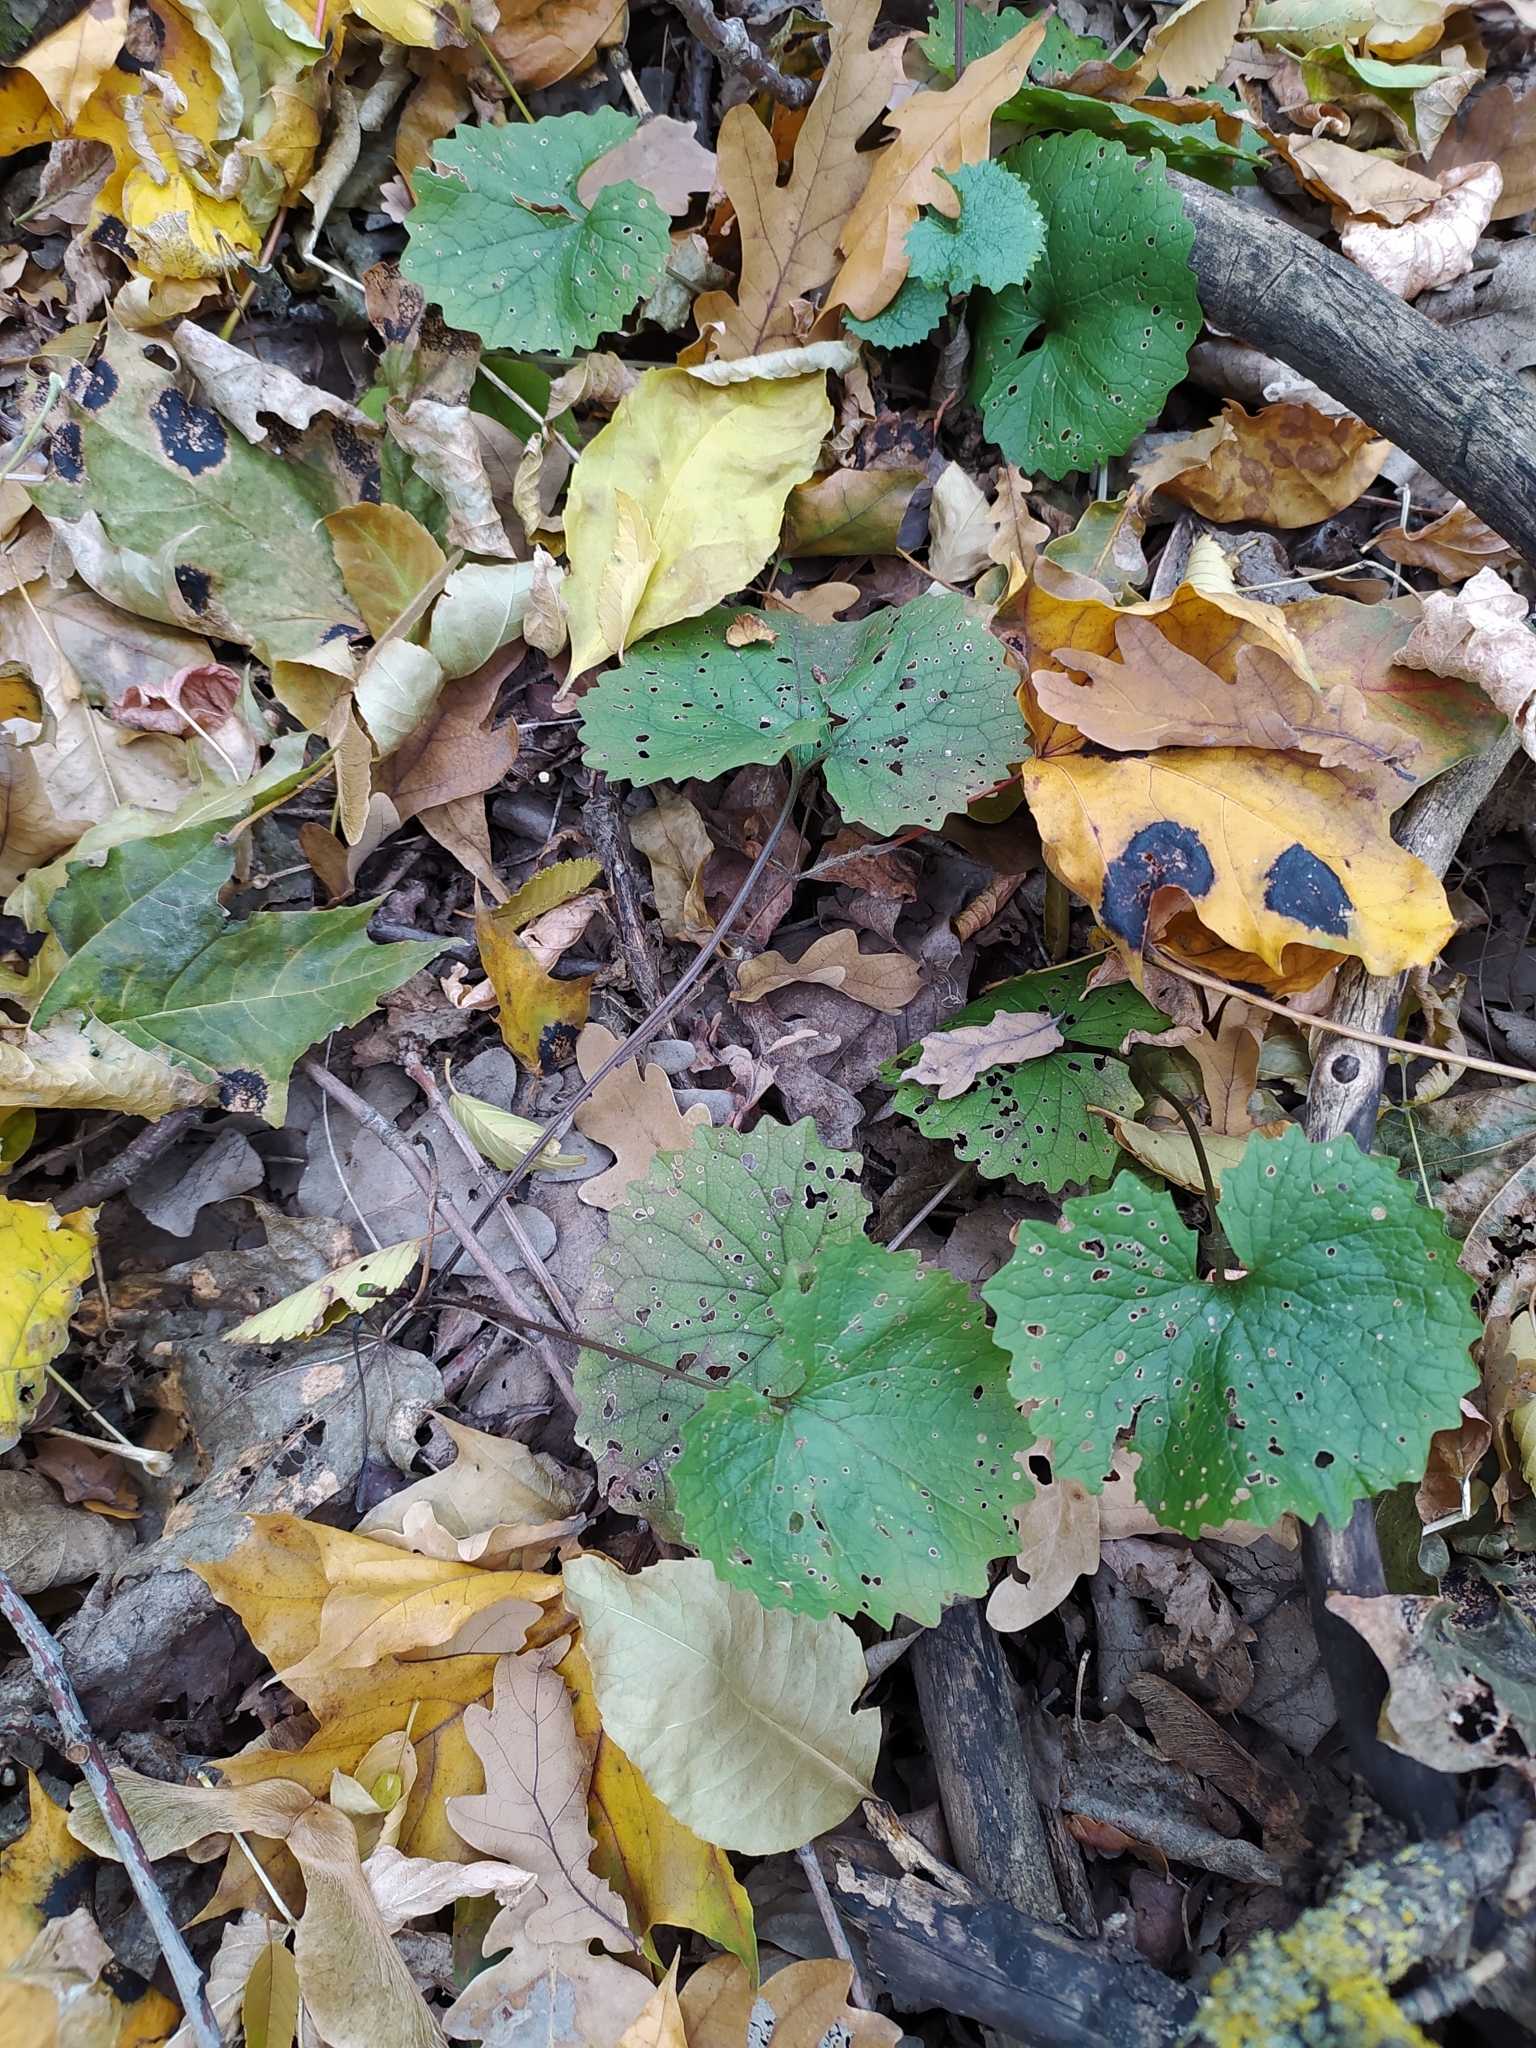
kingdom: Plantae
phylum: Tracheophyta
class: Magnoliopsida
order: Brassicales
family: Brassicaceae
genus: Alliaria
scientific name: Alliaria petiolata
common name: Garlic mustard
